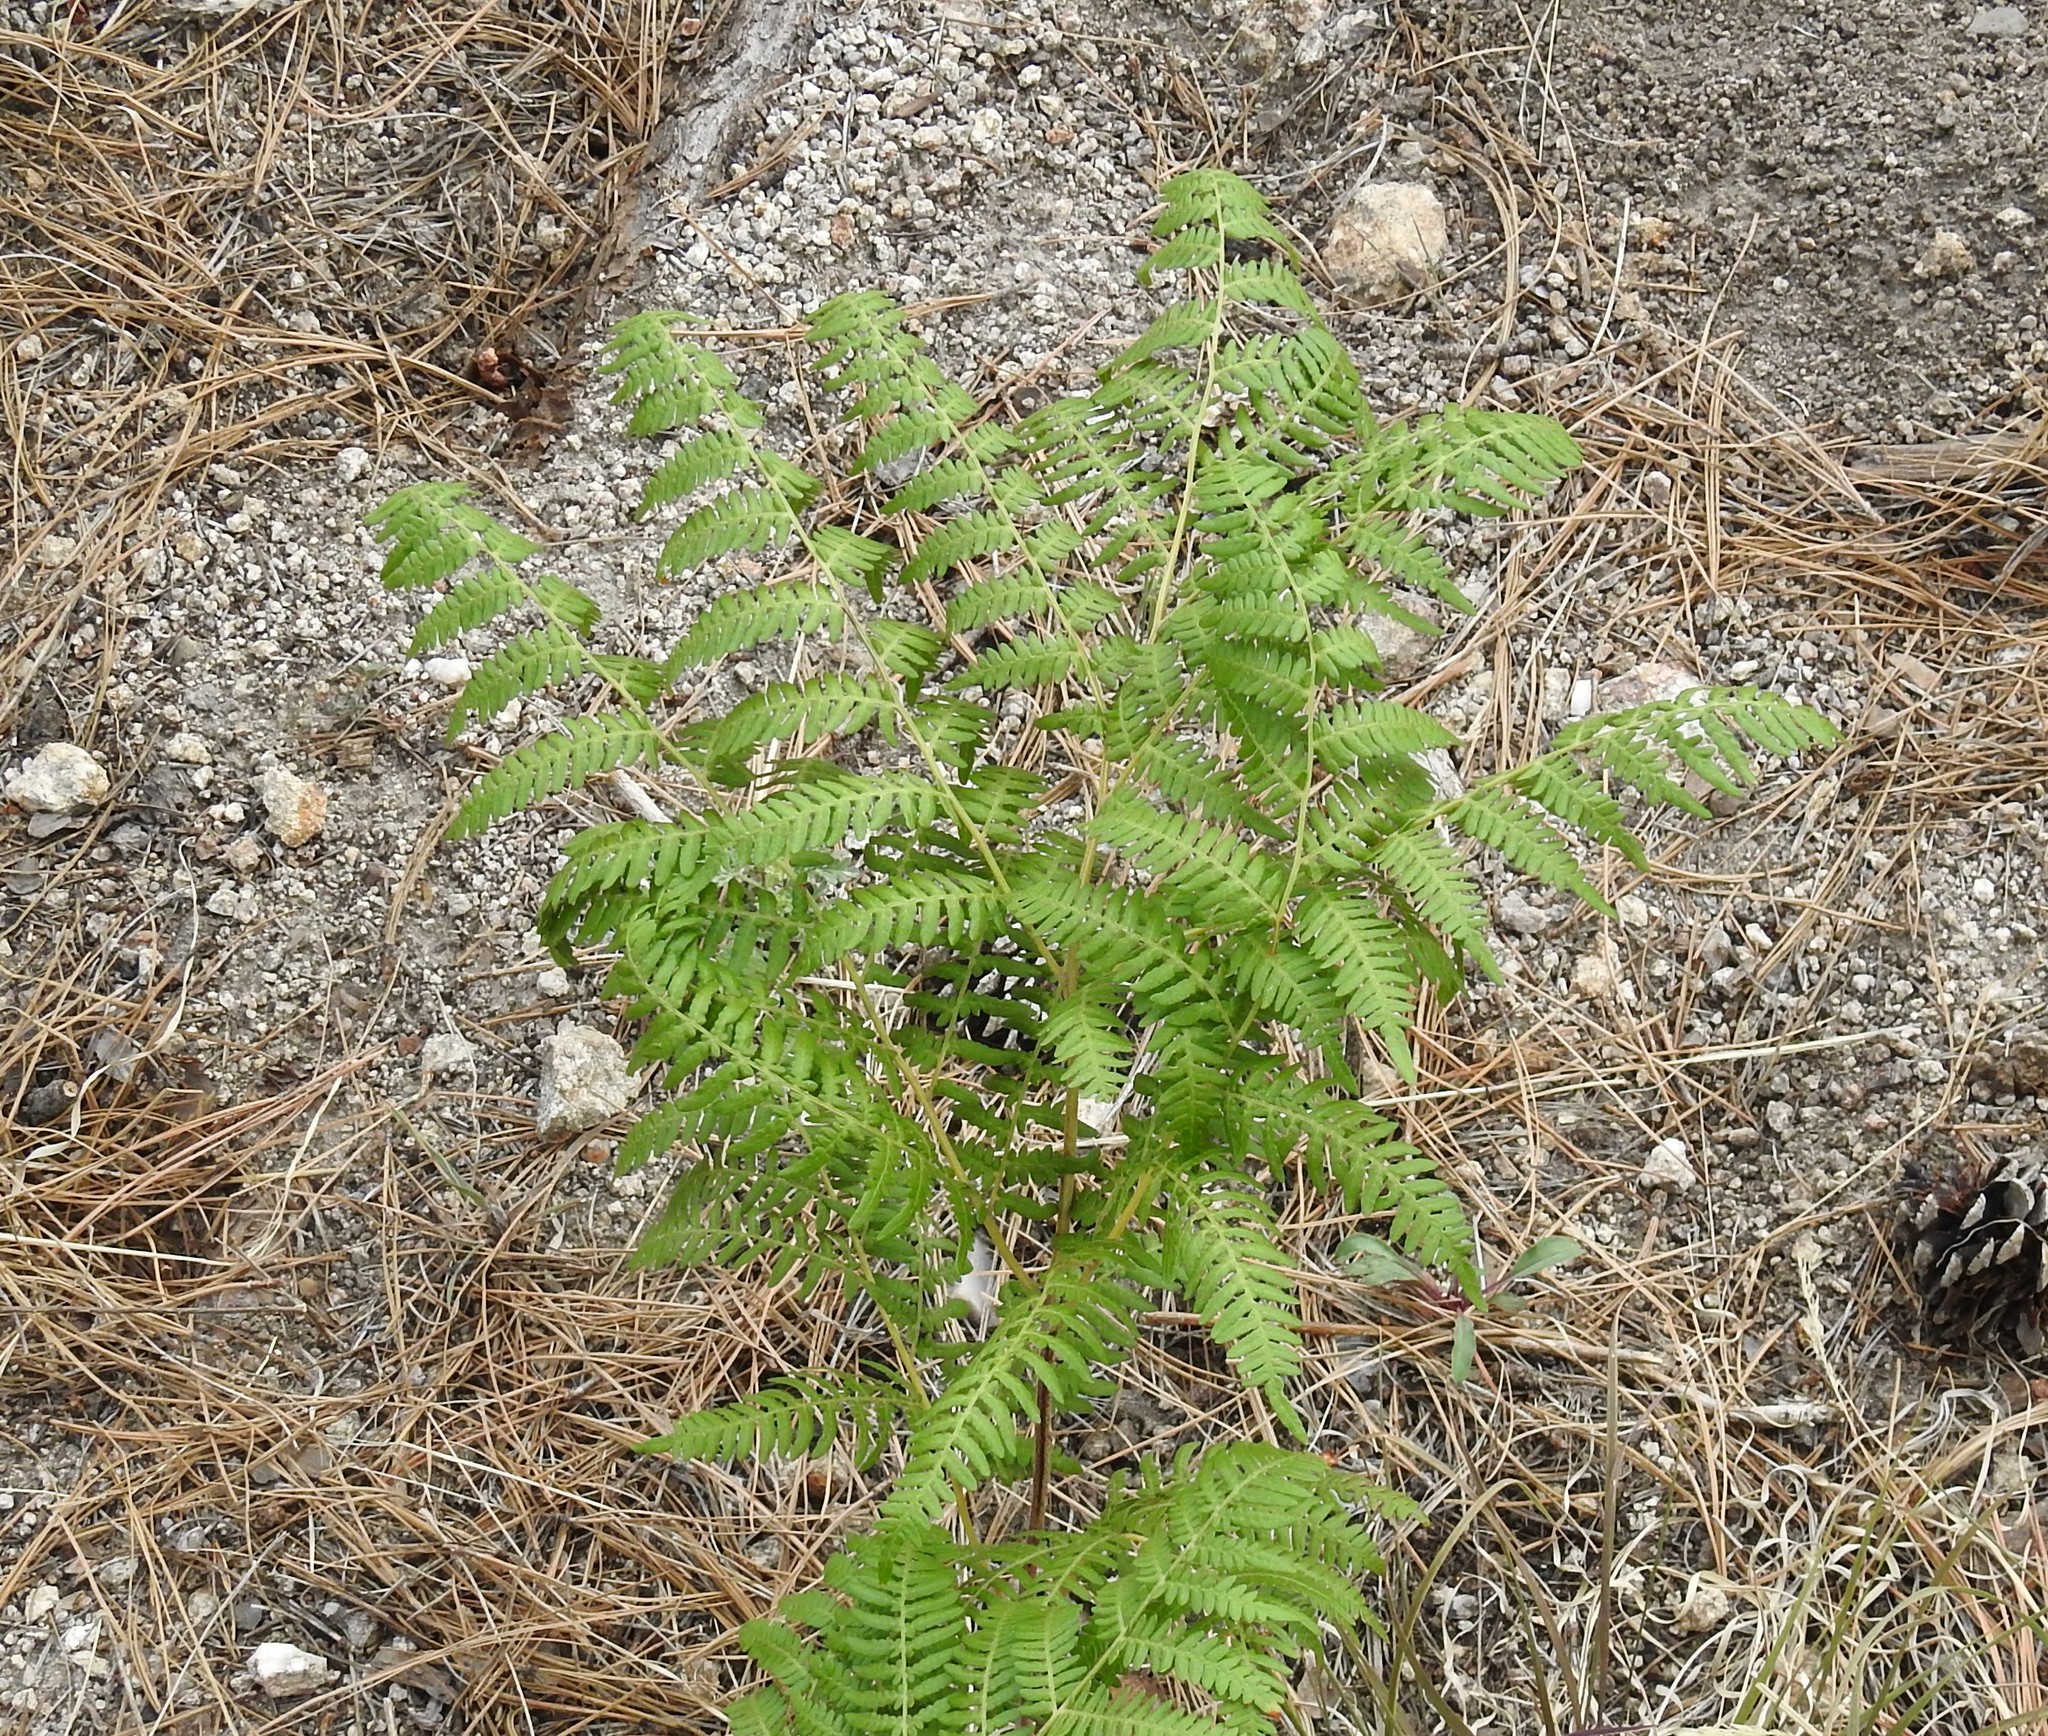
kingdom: Plantae
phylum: Tracheophyta
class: Polypodiopsida
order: Polypodiales
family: Dennstaedtiaceae
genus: Pteridium
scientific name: Pteridium aquilinum
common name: Bracken
